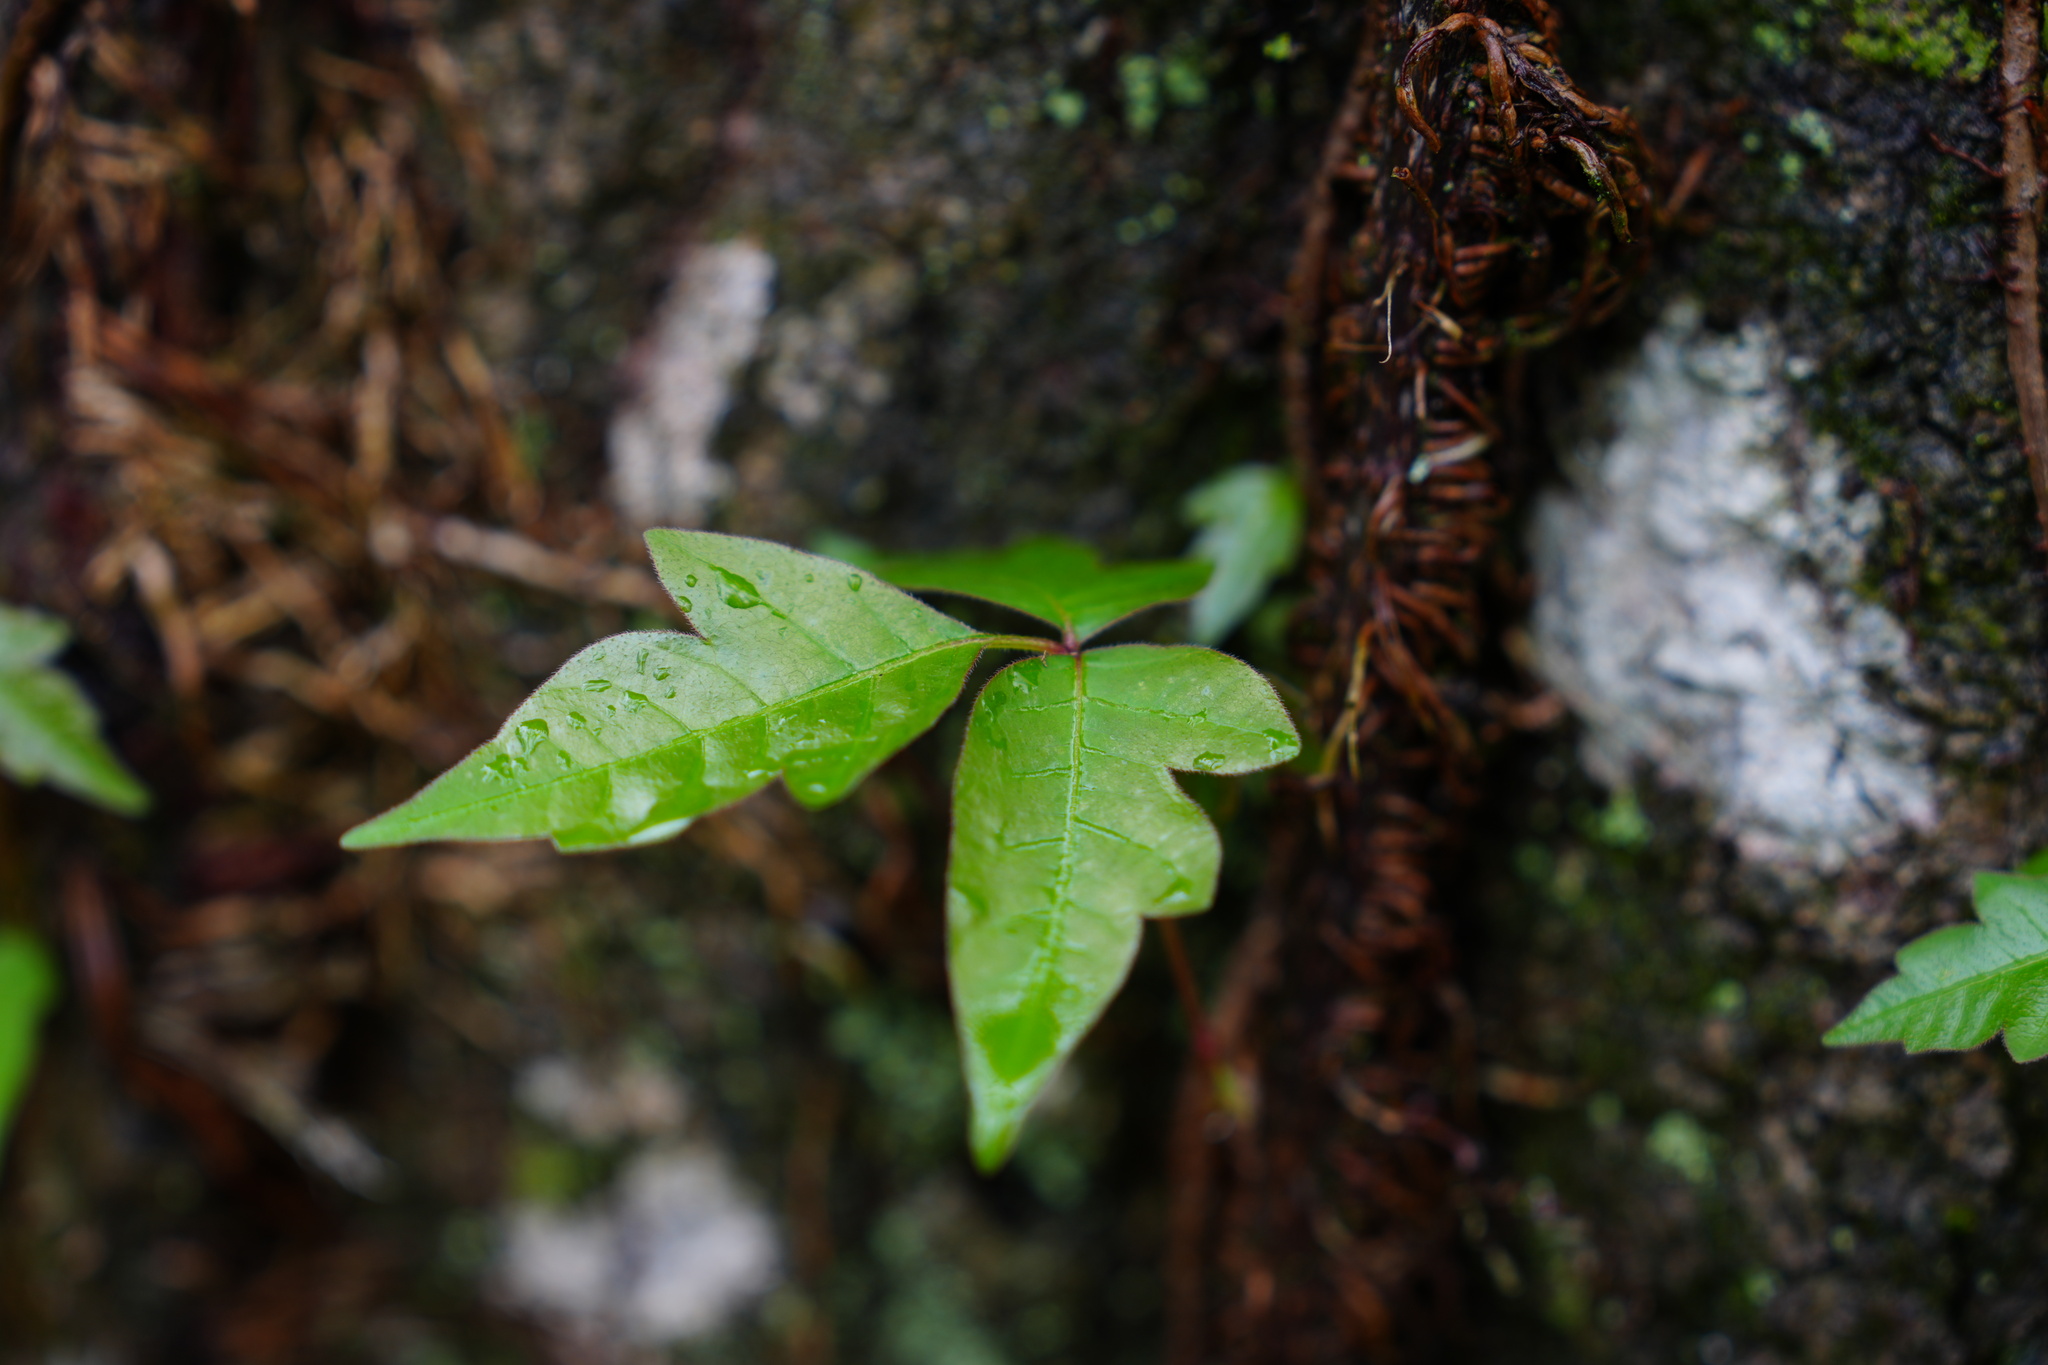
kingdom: Plantae
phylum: Tracheophyta
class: Magnoliopsida
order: Sapindales
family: Anacardiaceae
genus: Toxicodendron
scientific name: Toxicodendron radicans
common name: Poison ivy
